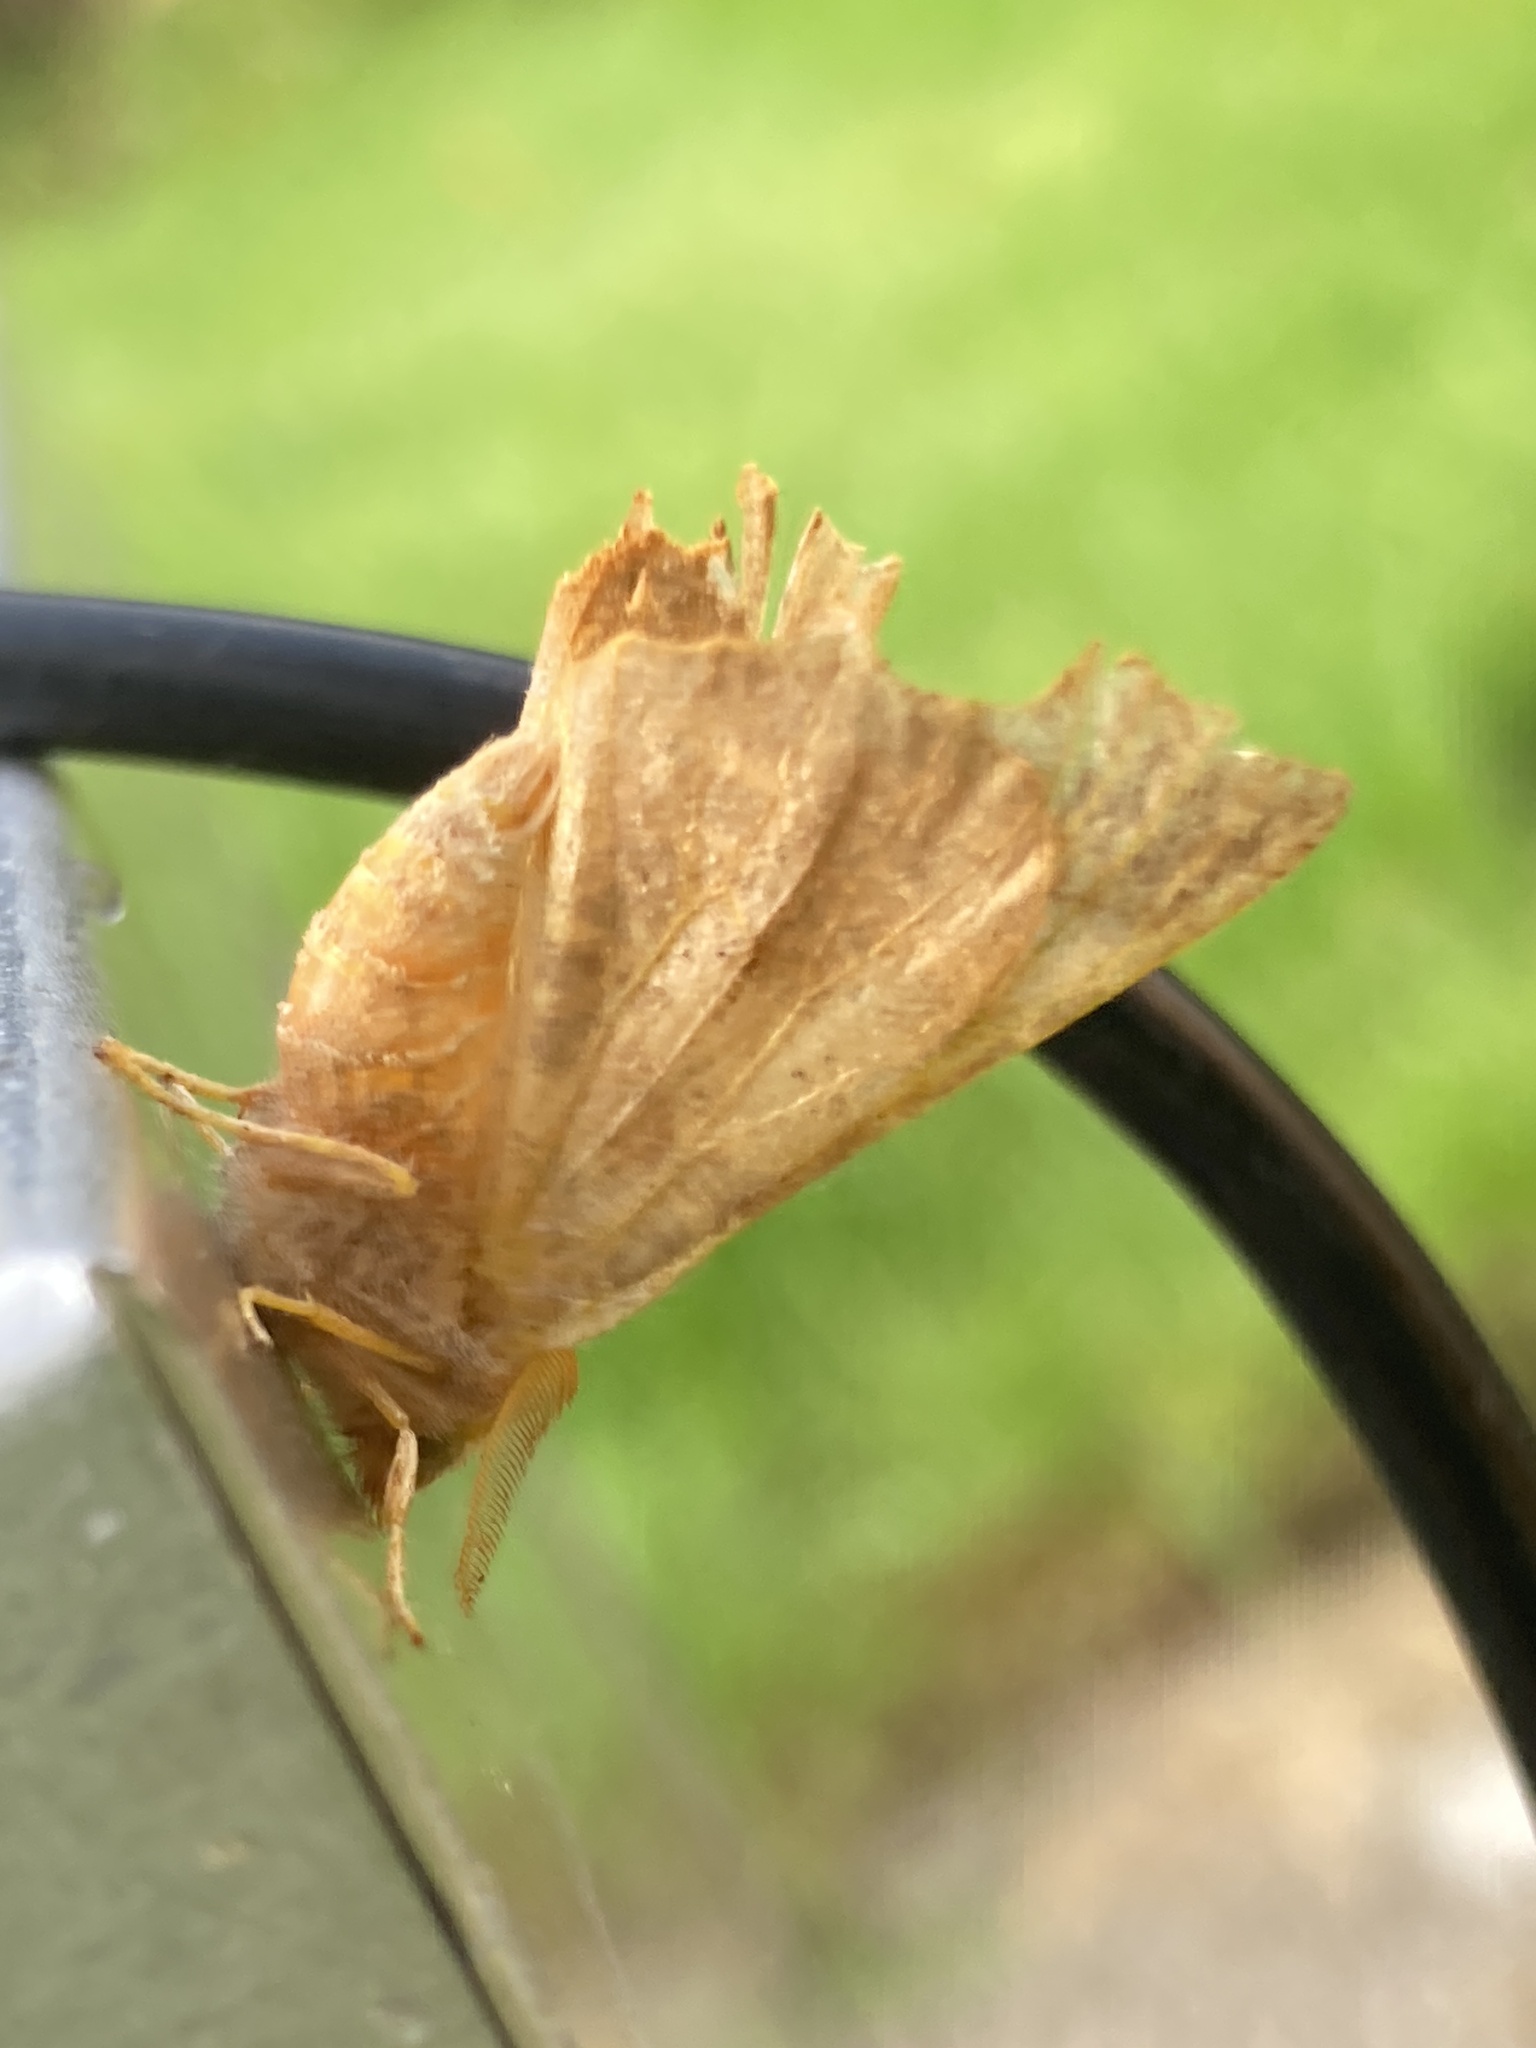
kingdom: Animalia
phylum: Arthropoda
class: Insecta
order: Lepidoptera
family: Geometridae
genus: Ennomos
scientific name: Ennomos fuscantaria
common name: Dusky thorn
